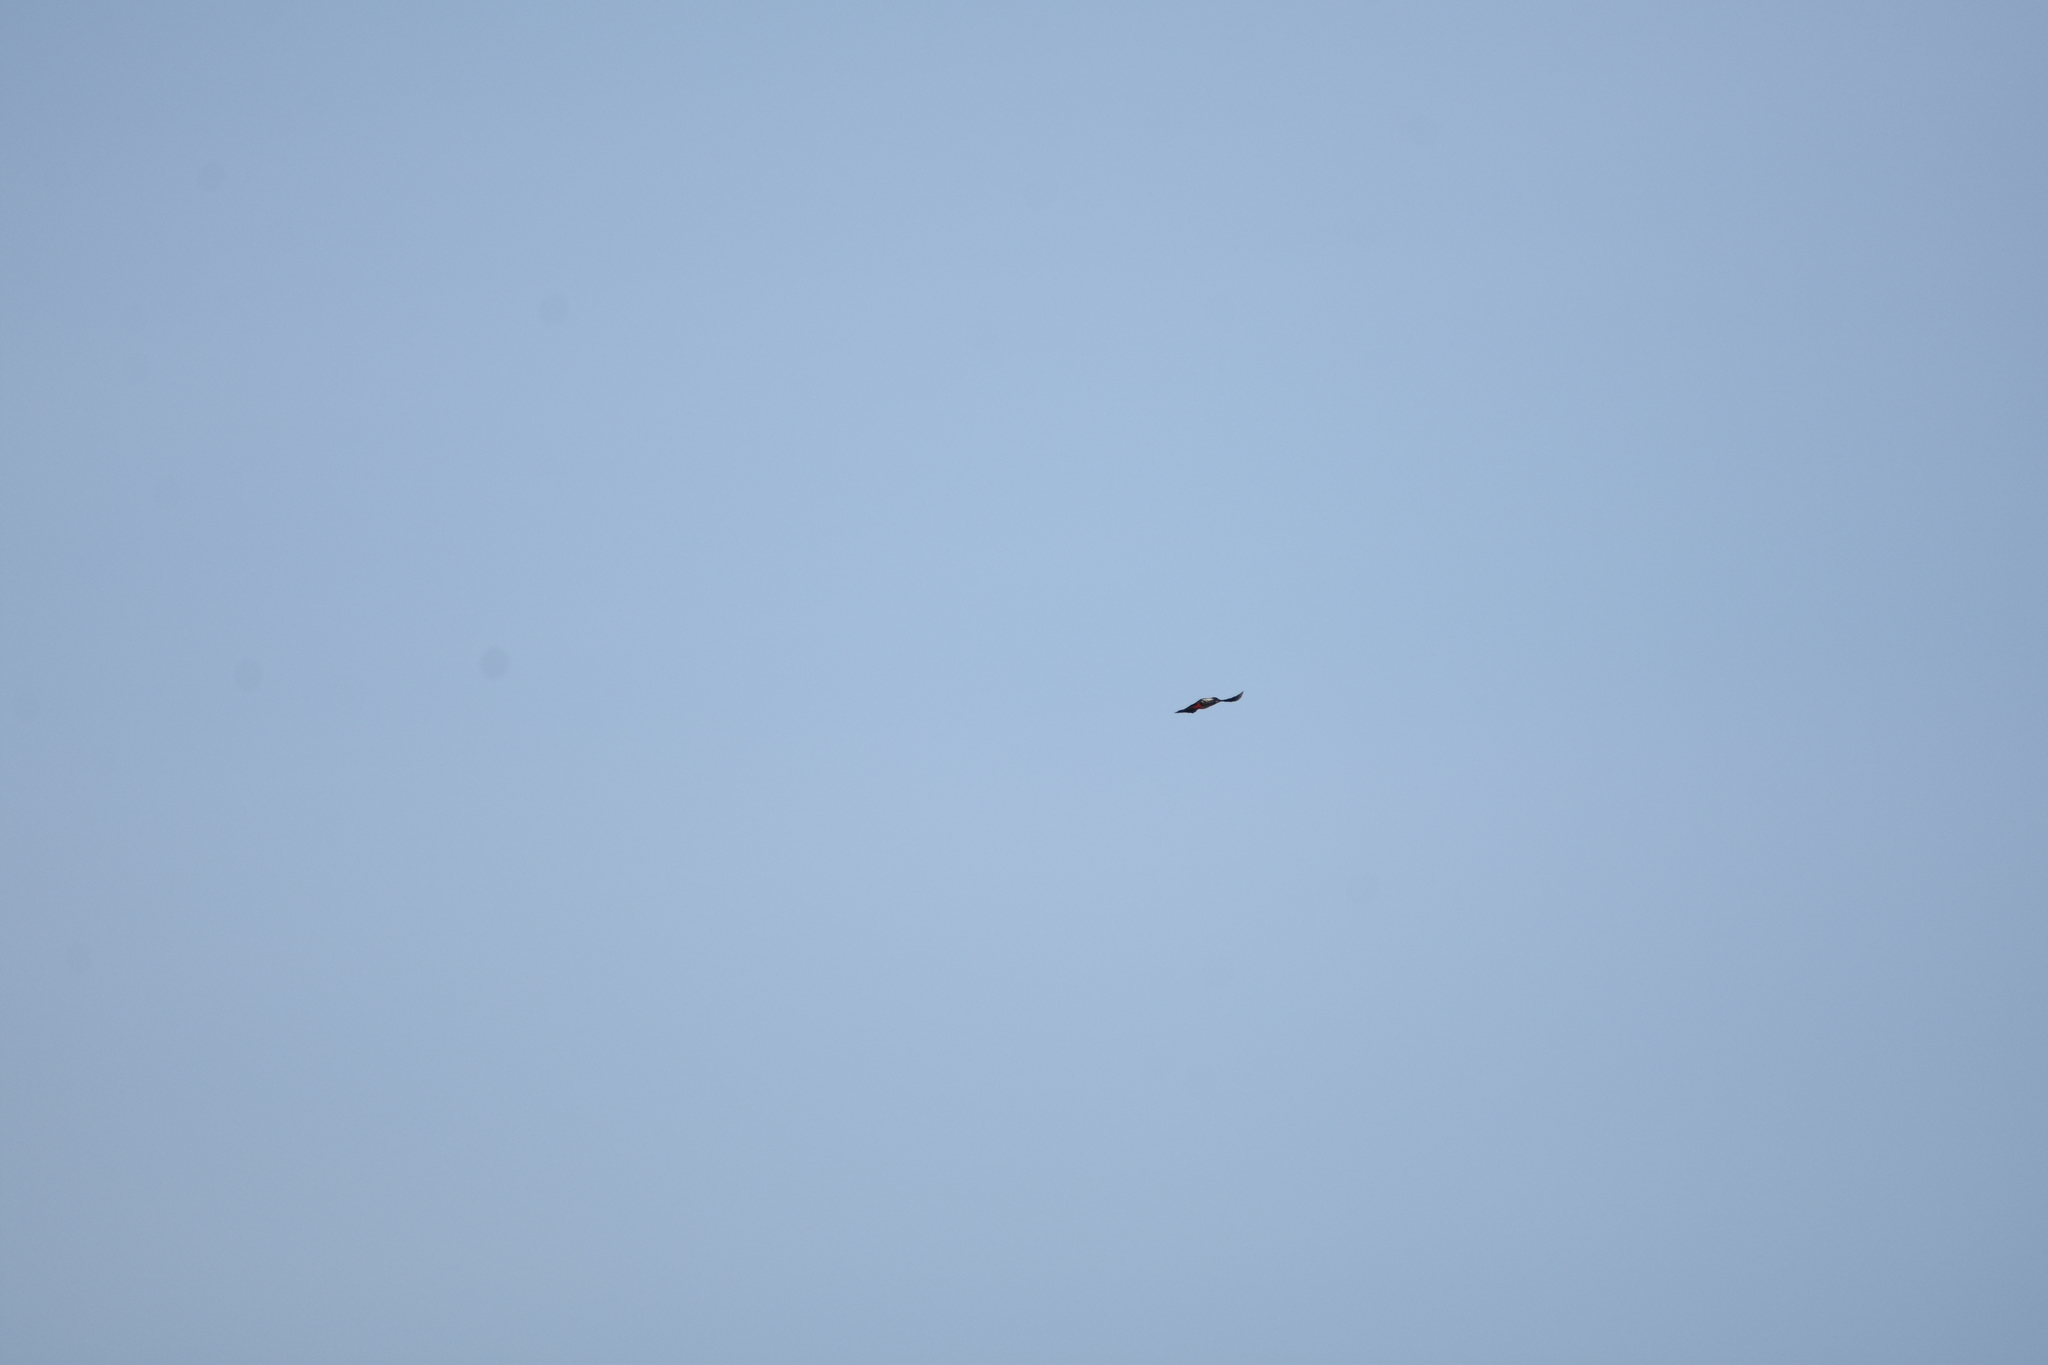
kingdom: Animalia
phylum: Chordata
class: Aves
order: Piciformes
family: Picidae
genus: Dendrocopos
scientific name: Dendrocopos major
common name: Great spotted woodpecker
